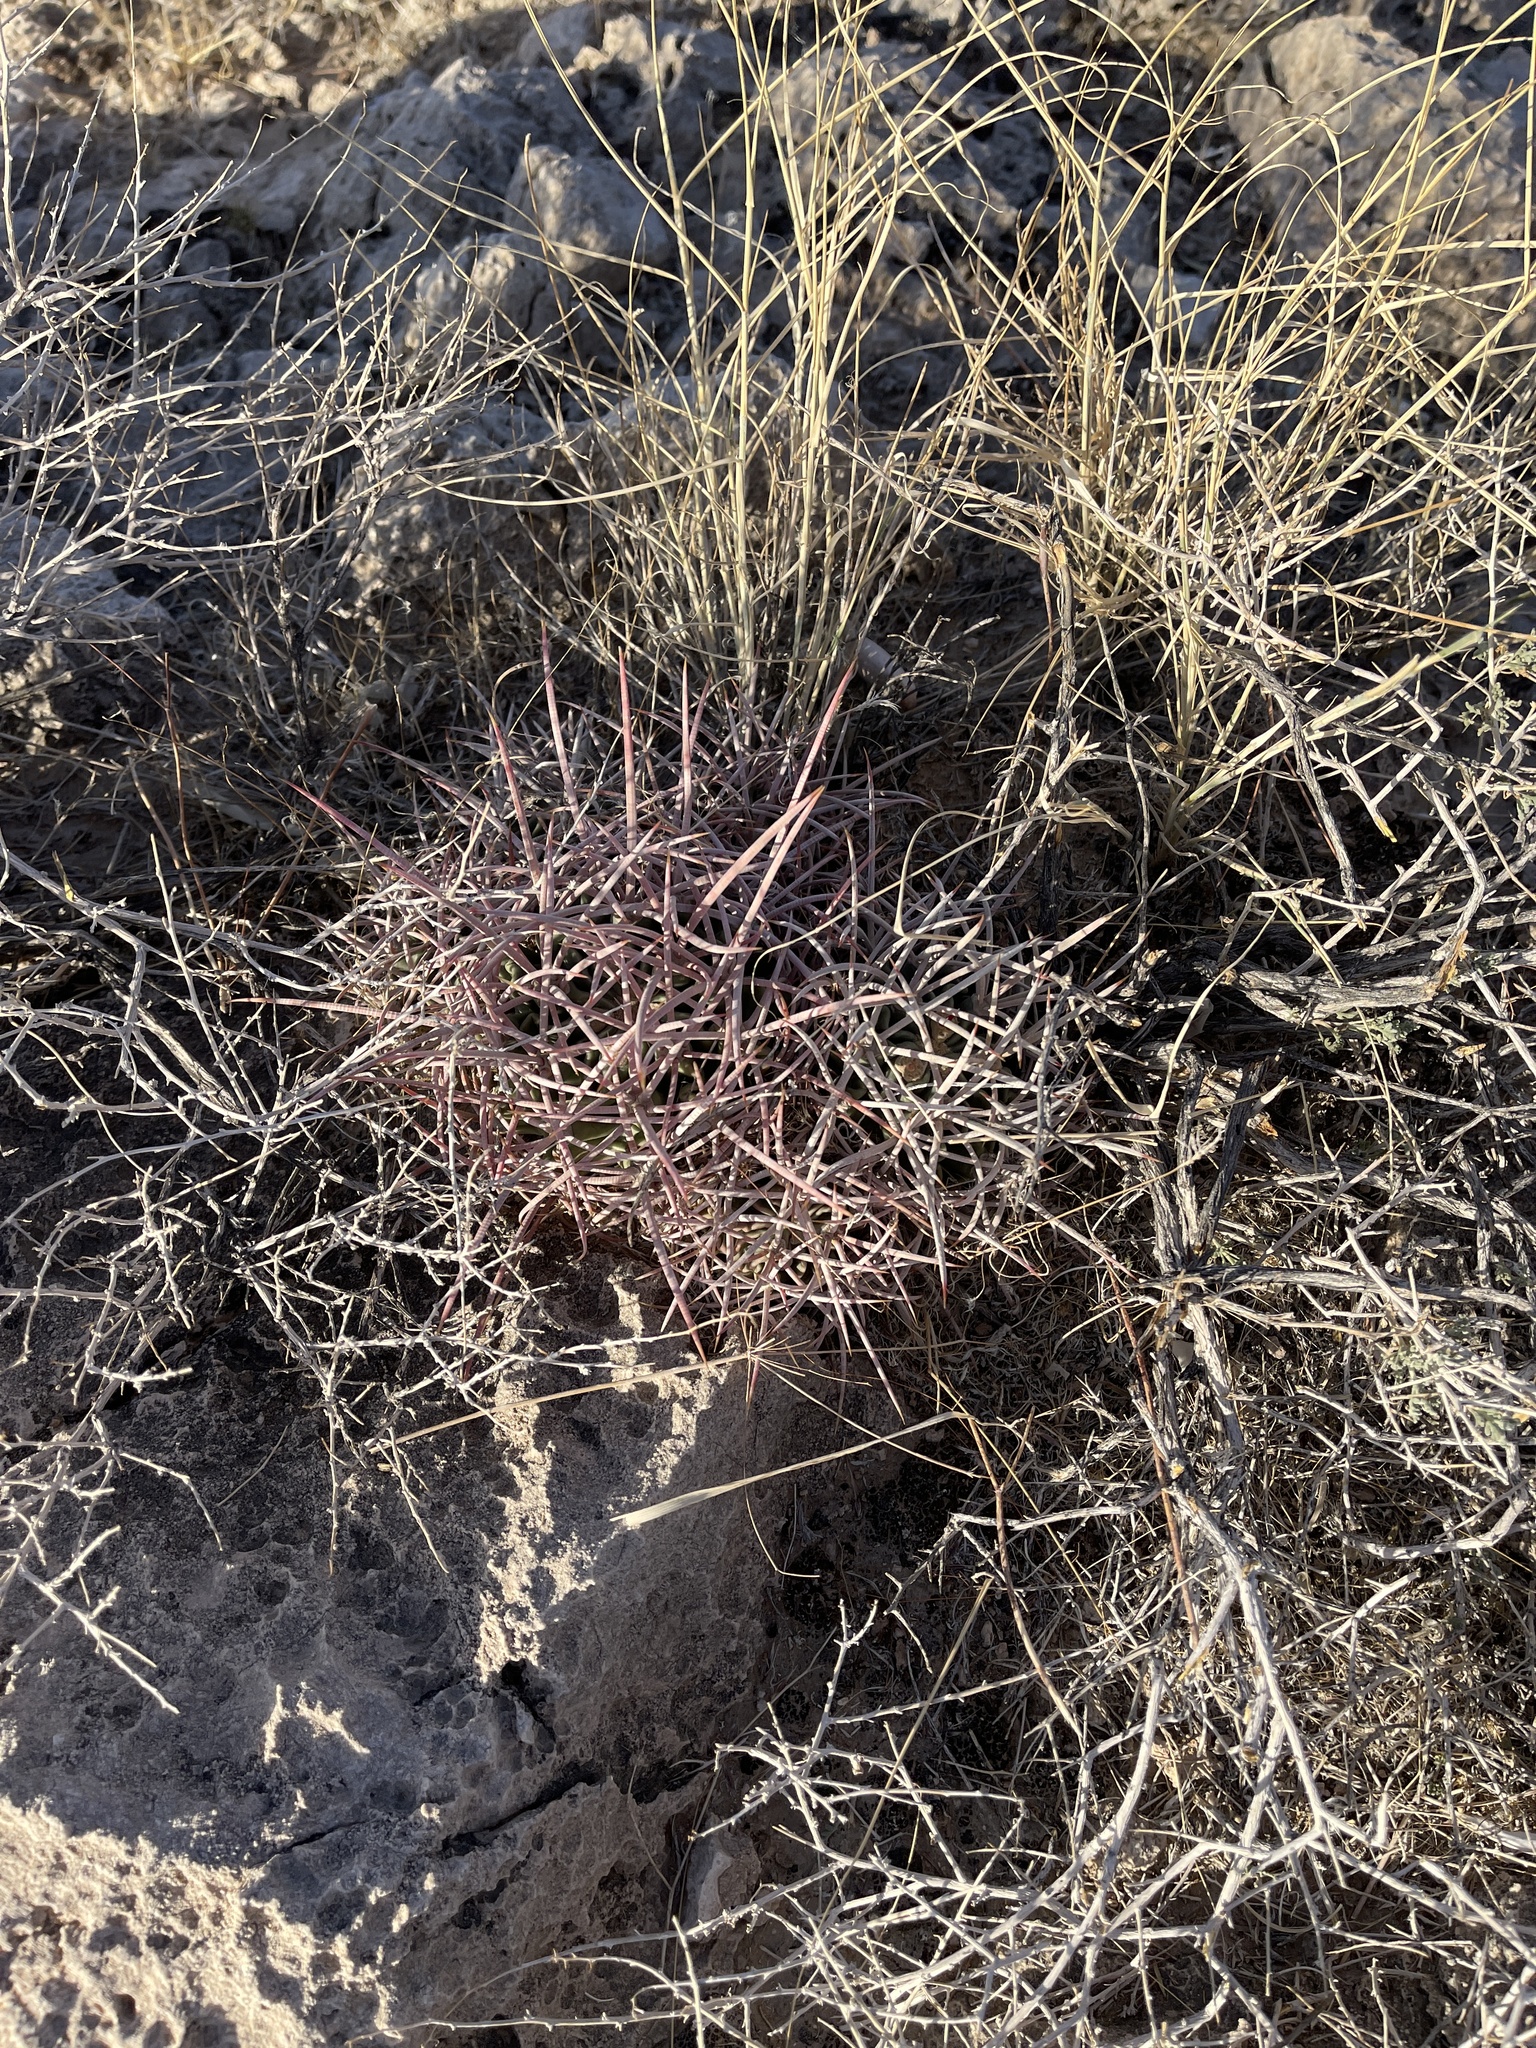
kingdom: Plantae
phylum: Tracheophyta
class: Magnoliopsida
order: Caryophyllales
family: Cactaceae
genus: Echinocactus
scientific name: Echinocactus polycephalus
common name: Cottontop cactus
